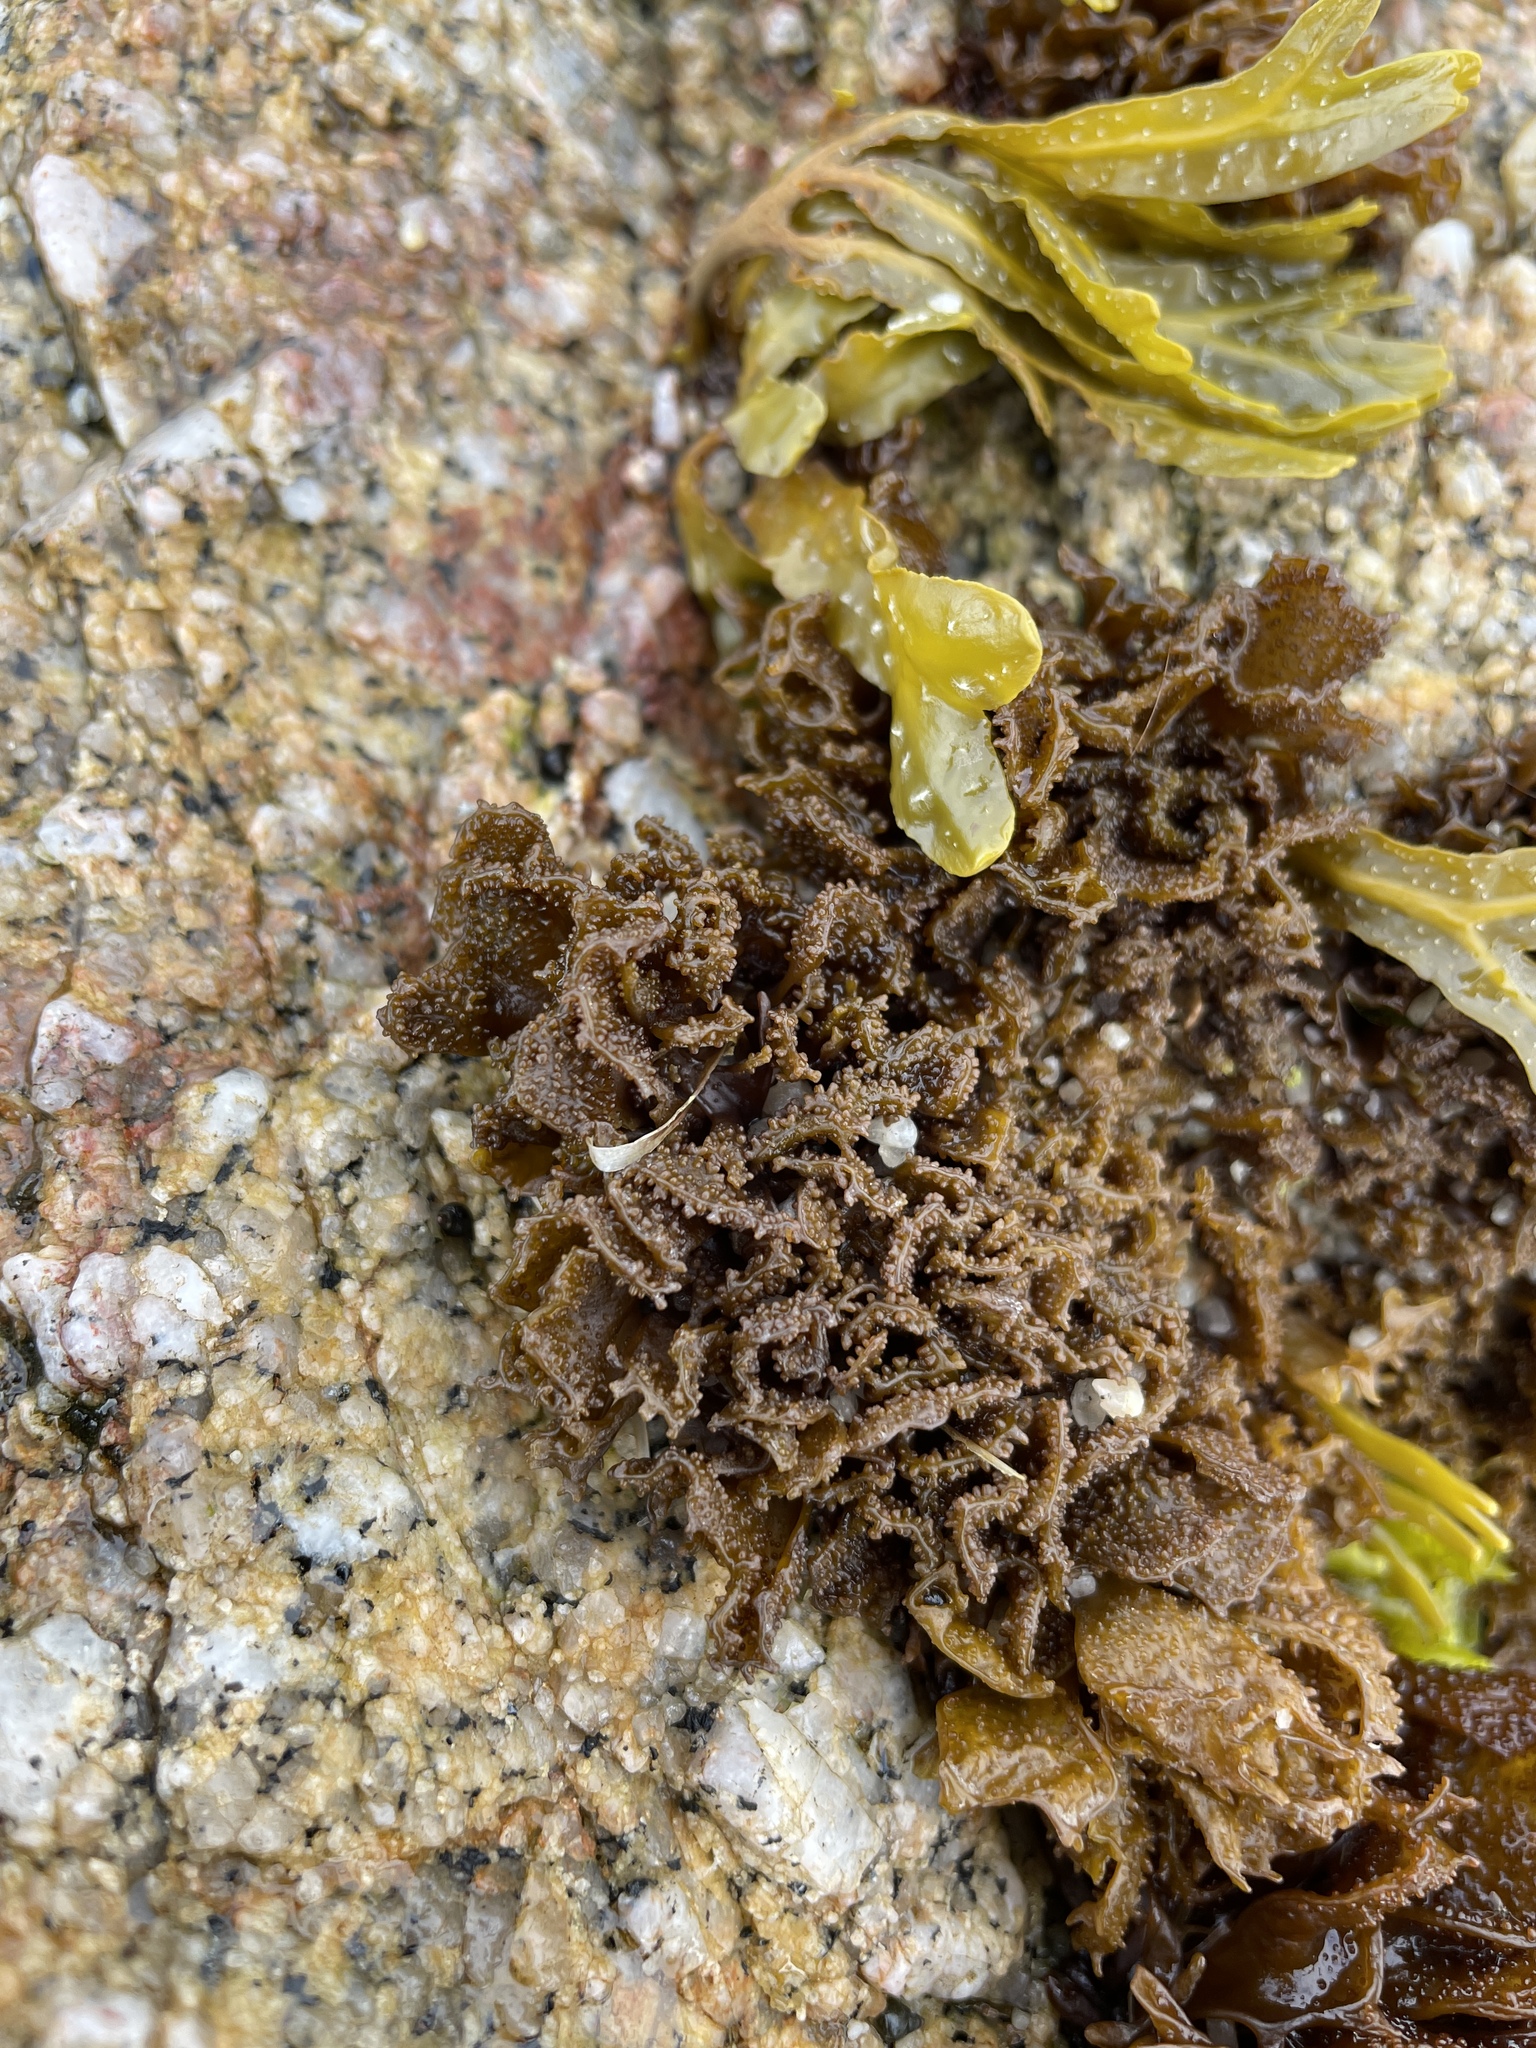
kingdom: Plantae
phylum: Rhodophyta
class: Florideophyceae
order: Gigartinales
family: Phyllophoraceae
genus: Mastocarpus
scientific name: Mastocarpus papillatus
